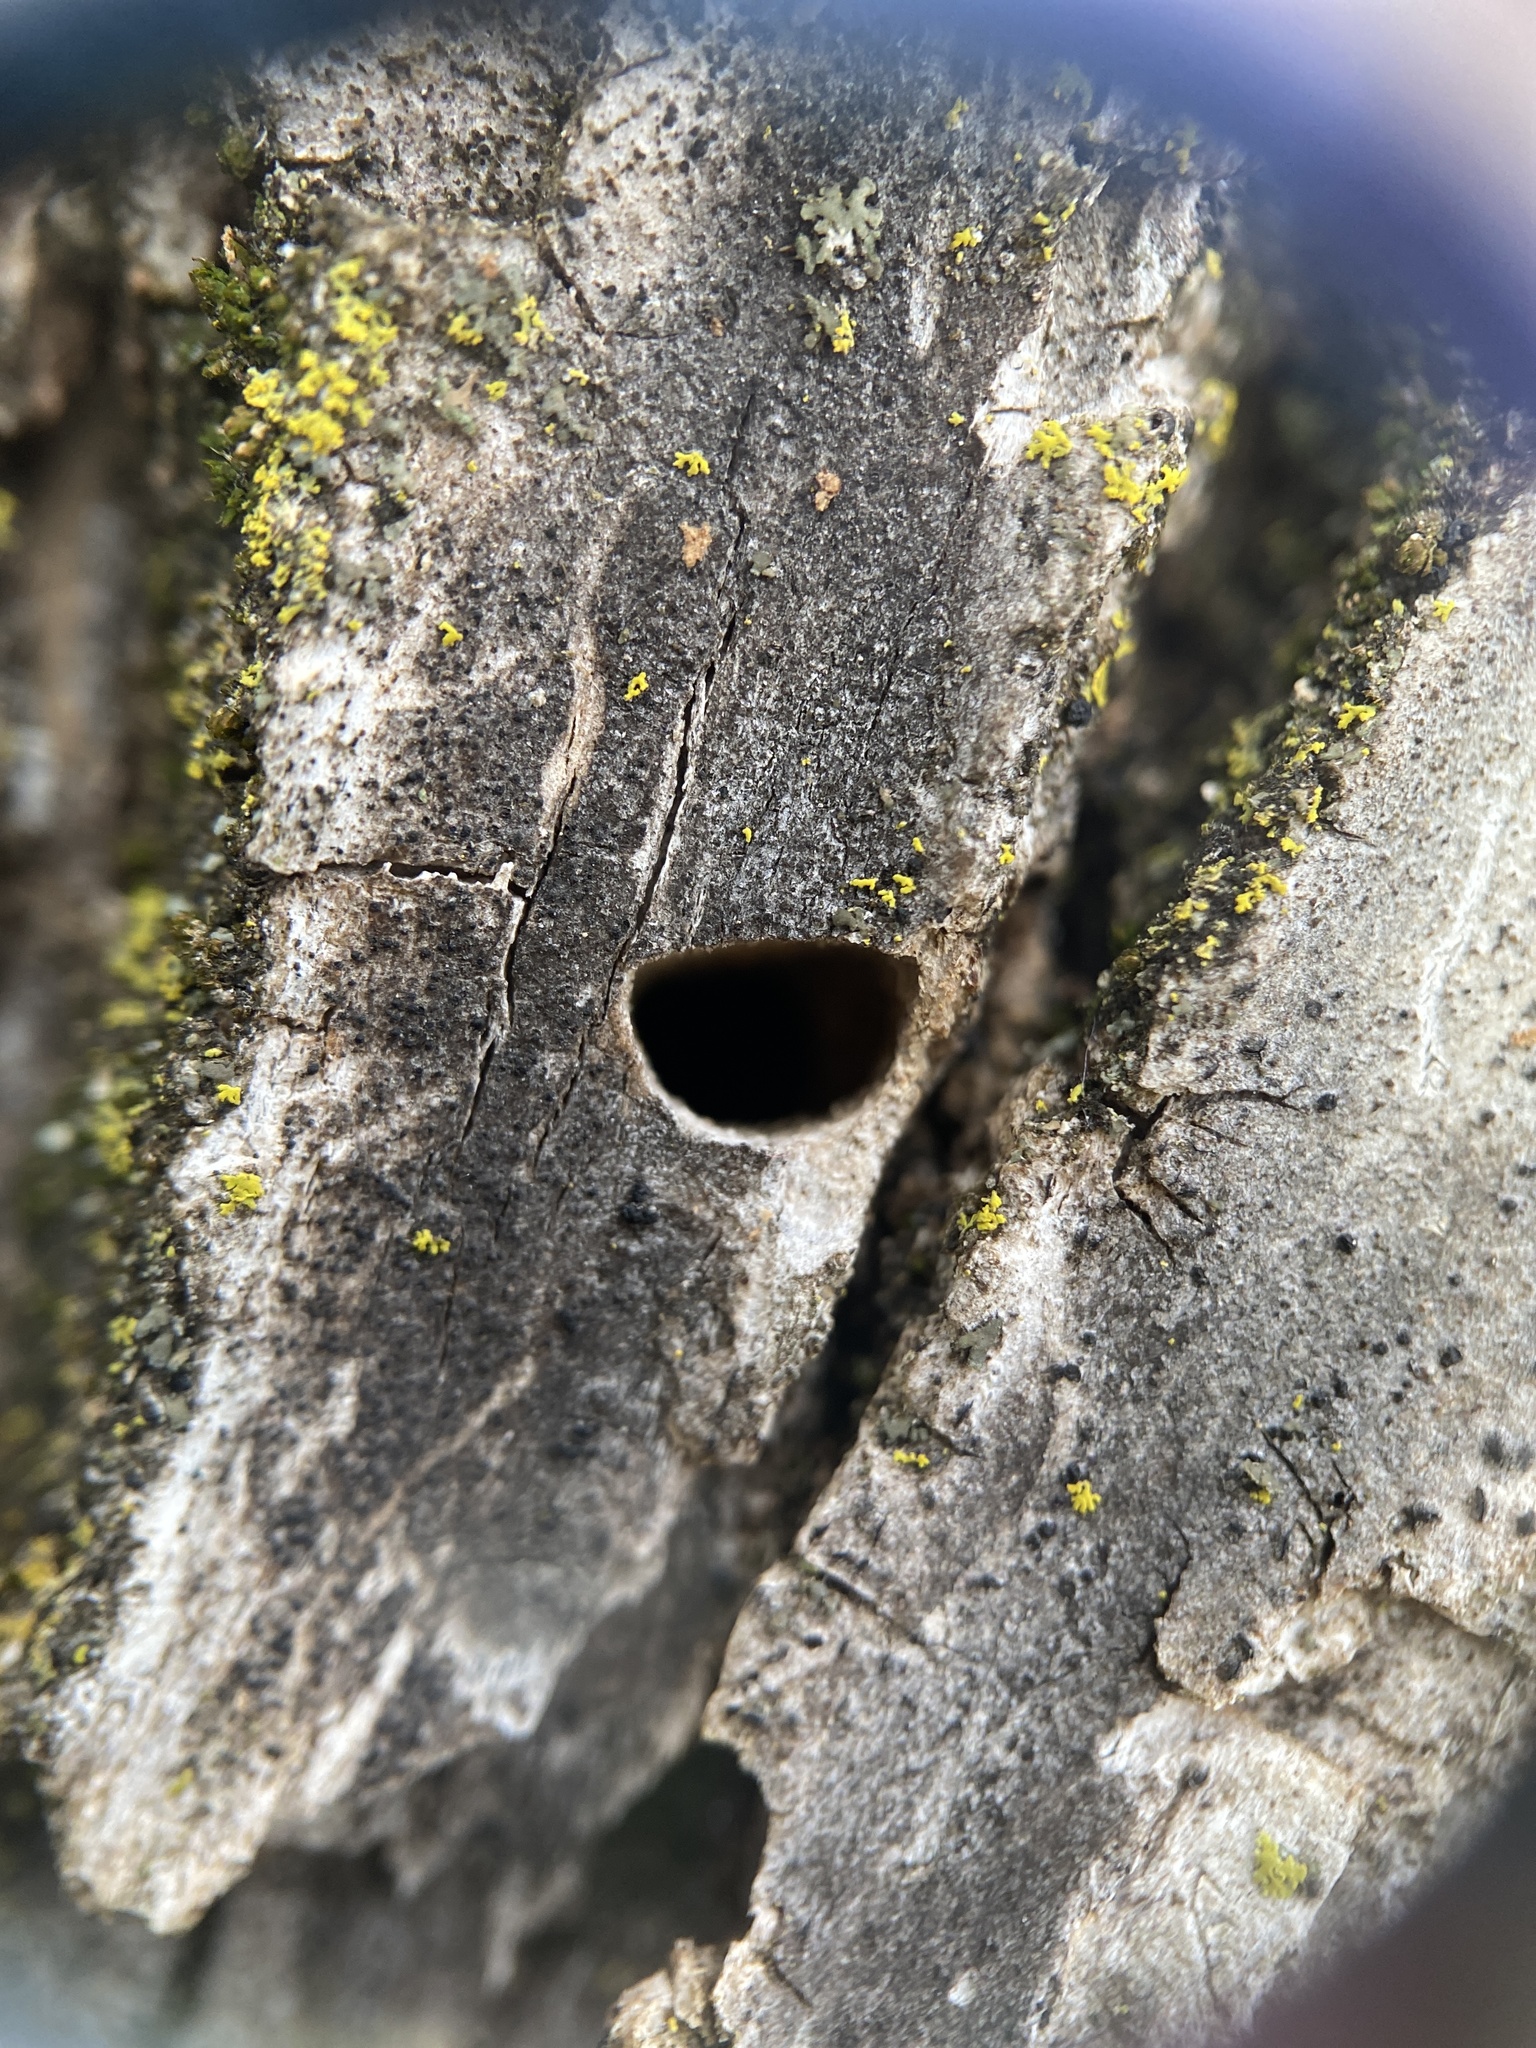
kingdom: Animalia
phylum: Arthropoda
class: Insecta
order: Coleoptera
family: Buprestidae
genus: Agrilus
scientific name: Agrilus planipennis
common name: Emerald ash borer
